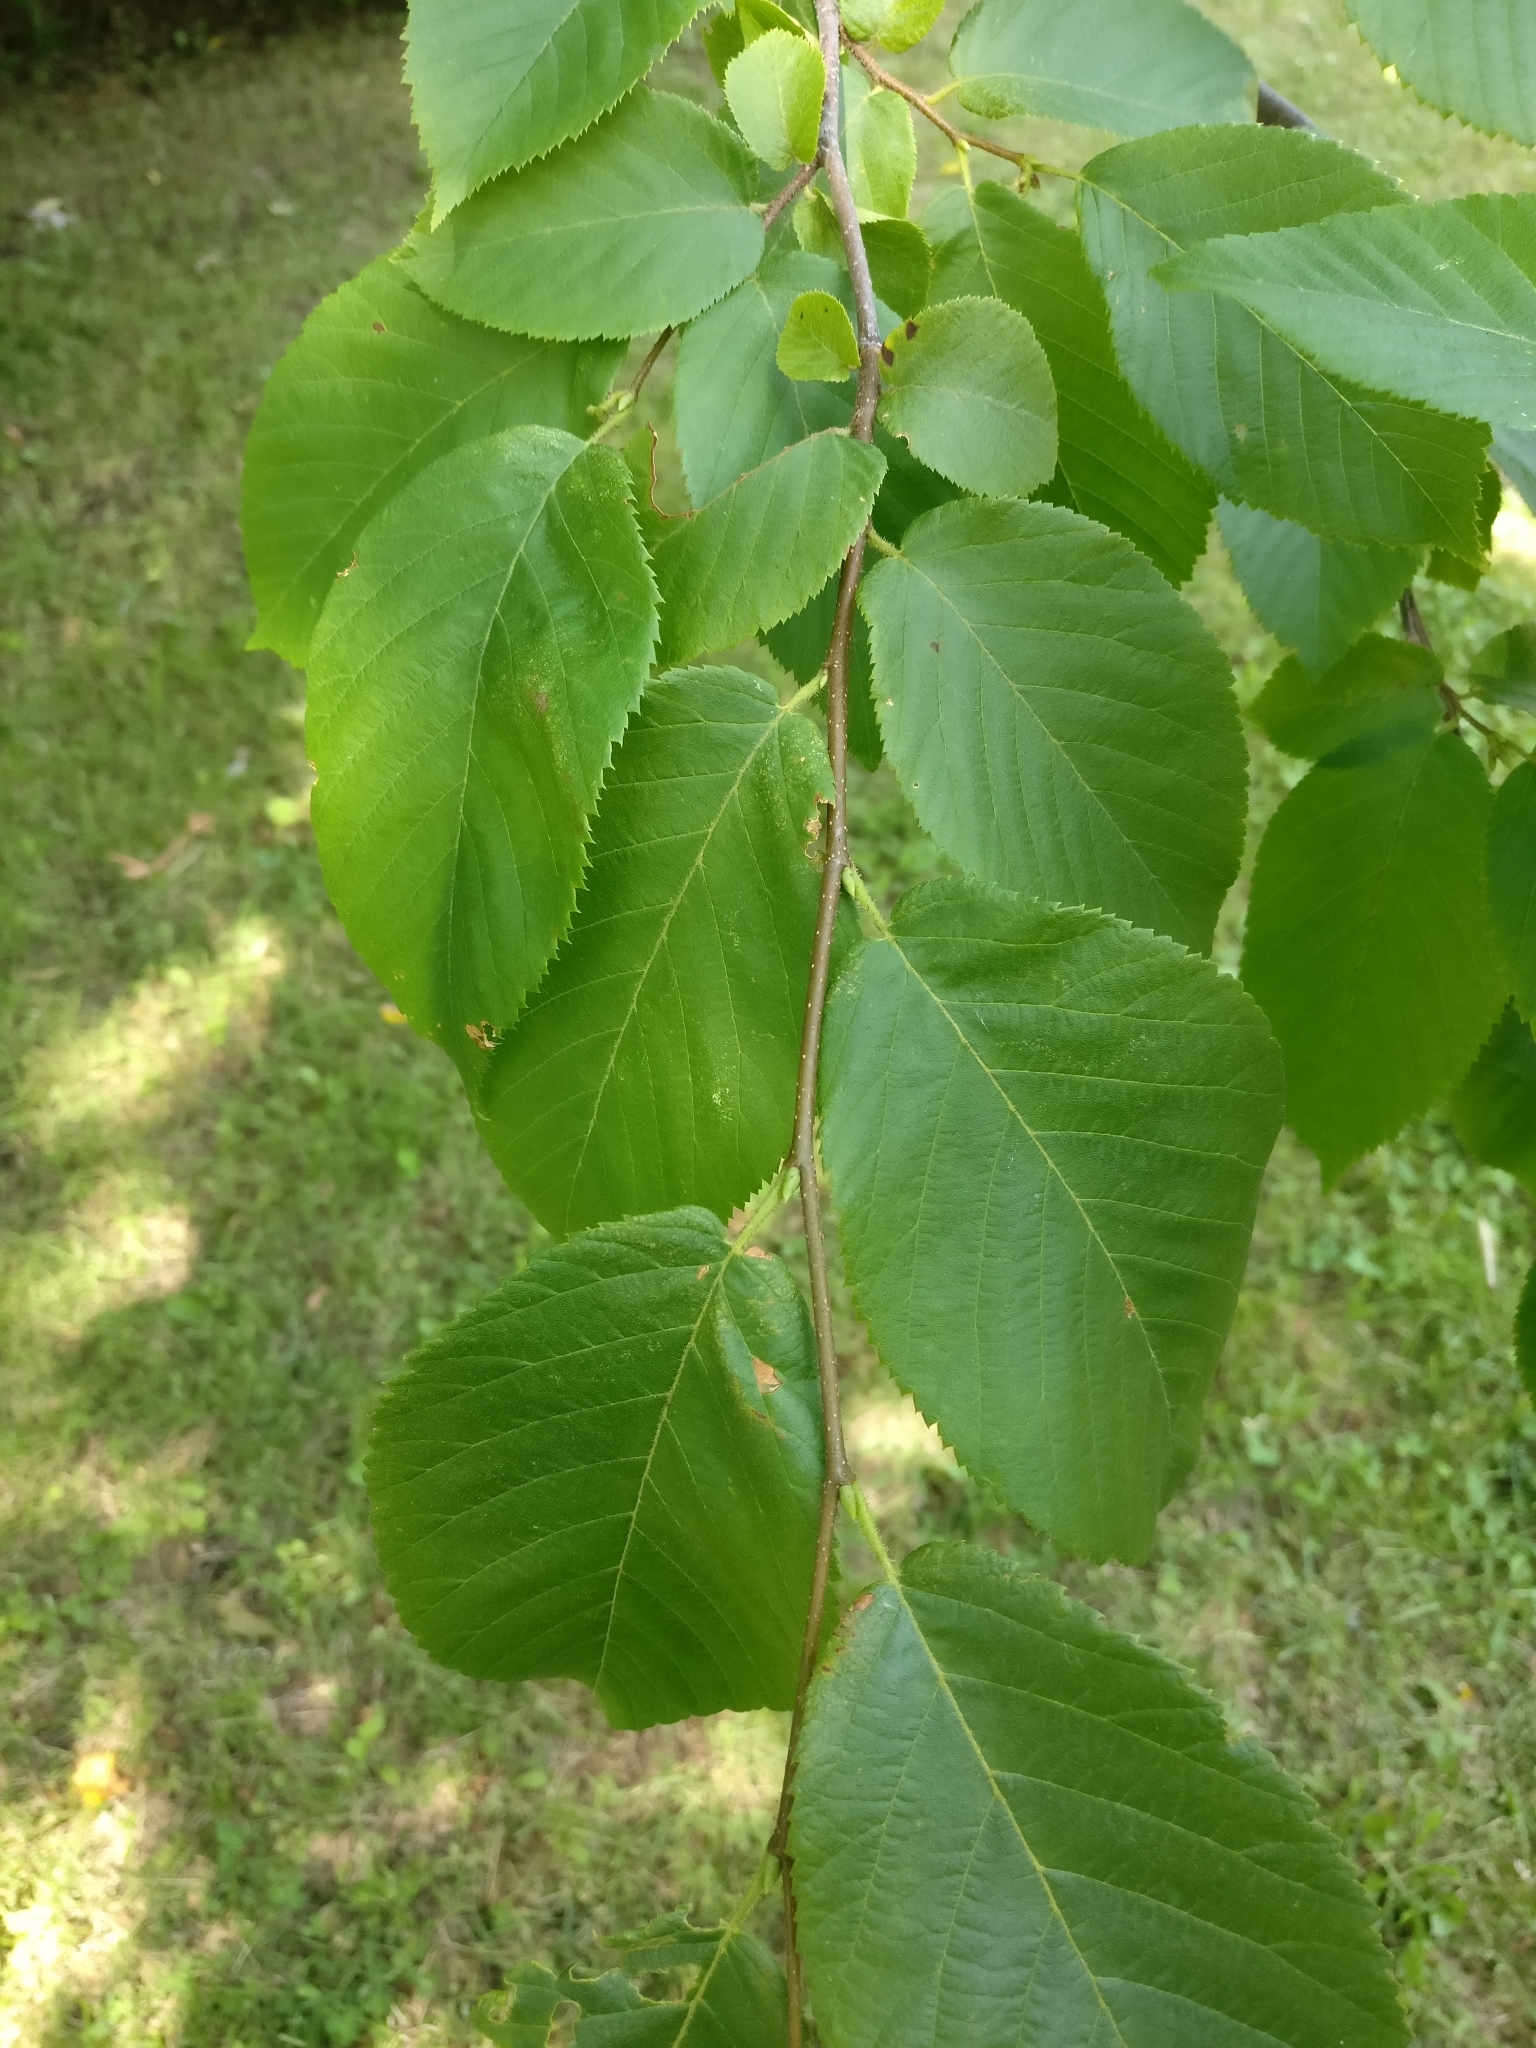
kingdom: Plantae
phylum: Tracheophyta
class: Magnoliopsida
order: Fagales
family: Betulaceae
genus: Ostrya
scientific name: Ostrya virginiana
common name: Ironwood
